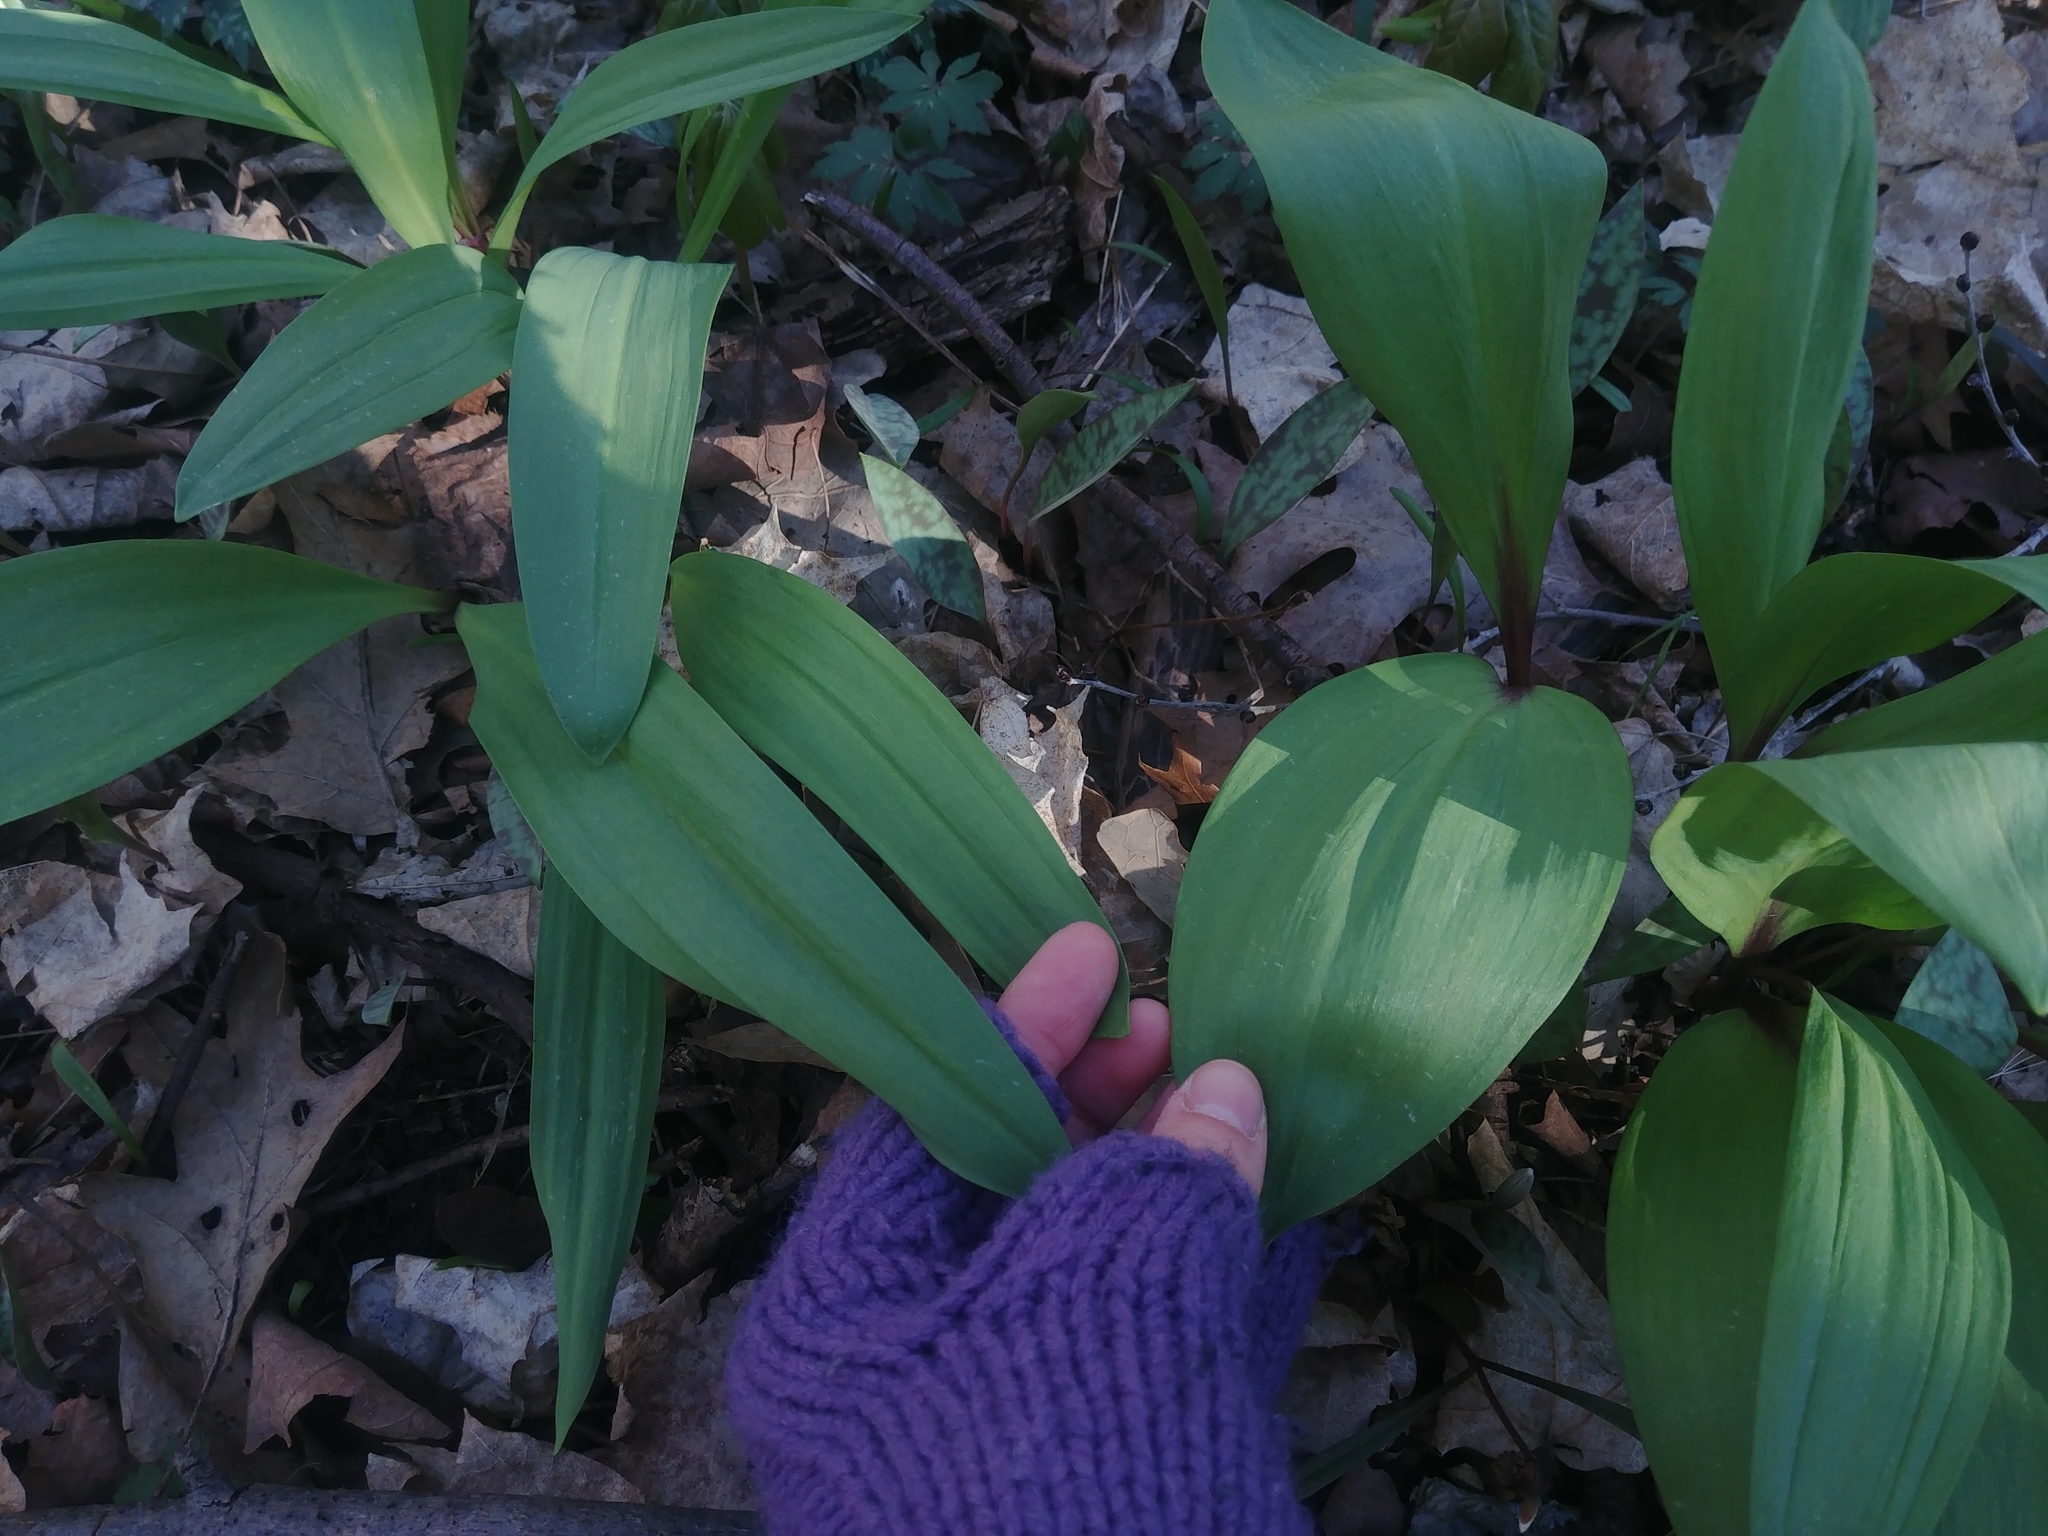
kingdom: Plantae
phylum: Tracheophyta
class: Liliopsida
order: Asparagales
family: Amaryllidaceae
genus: Allium
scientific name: Allium tricoccum
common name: Ramp
